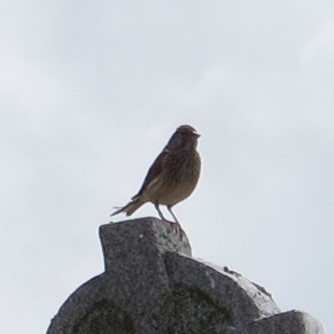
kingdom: Animalia
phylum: Chordata
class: Aves
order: Passeriformes
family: Fringillidae
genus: Linaria
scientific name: Linaria cannabina
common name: Common linnet
